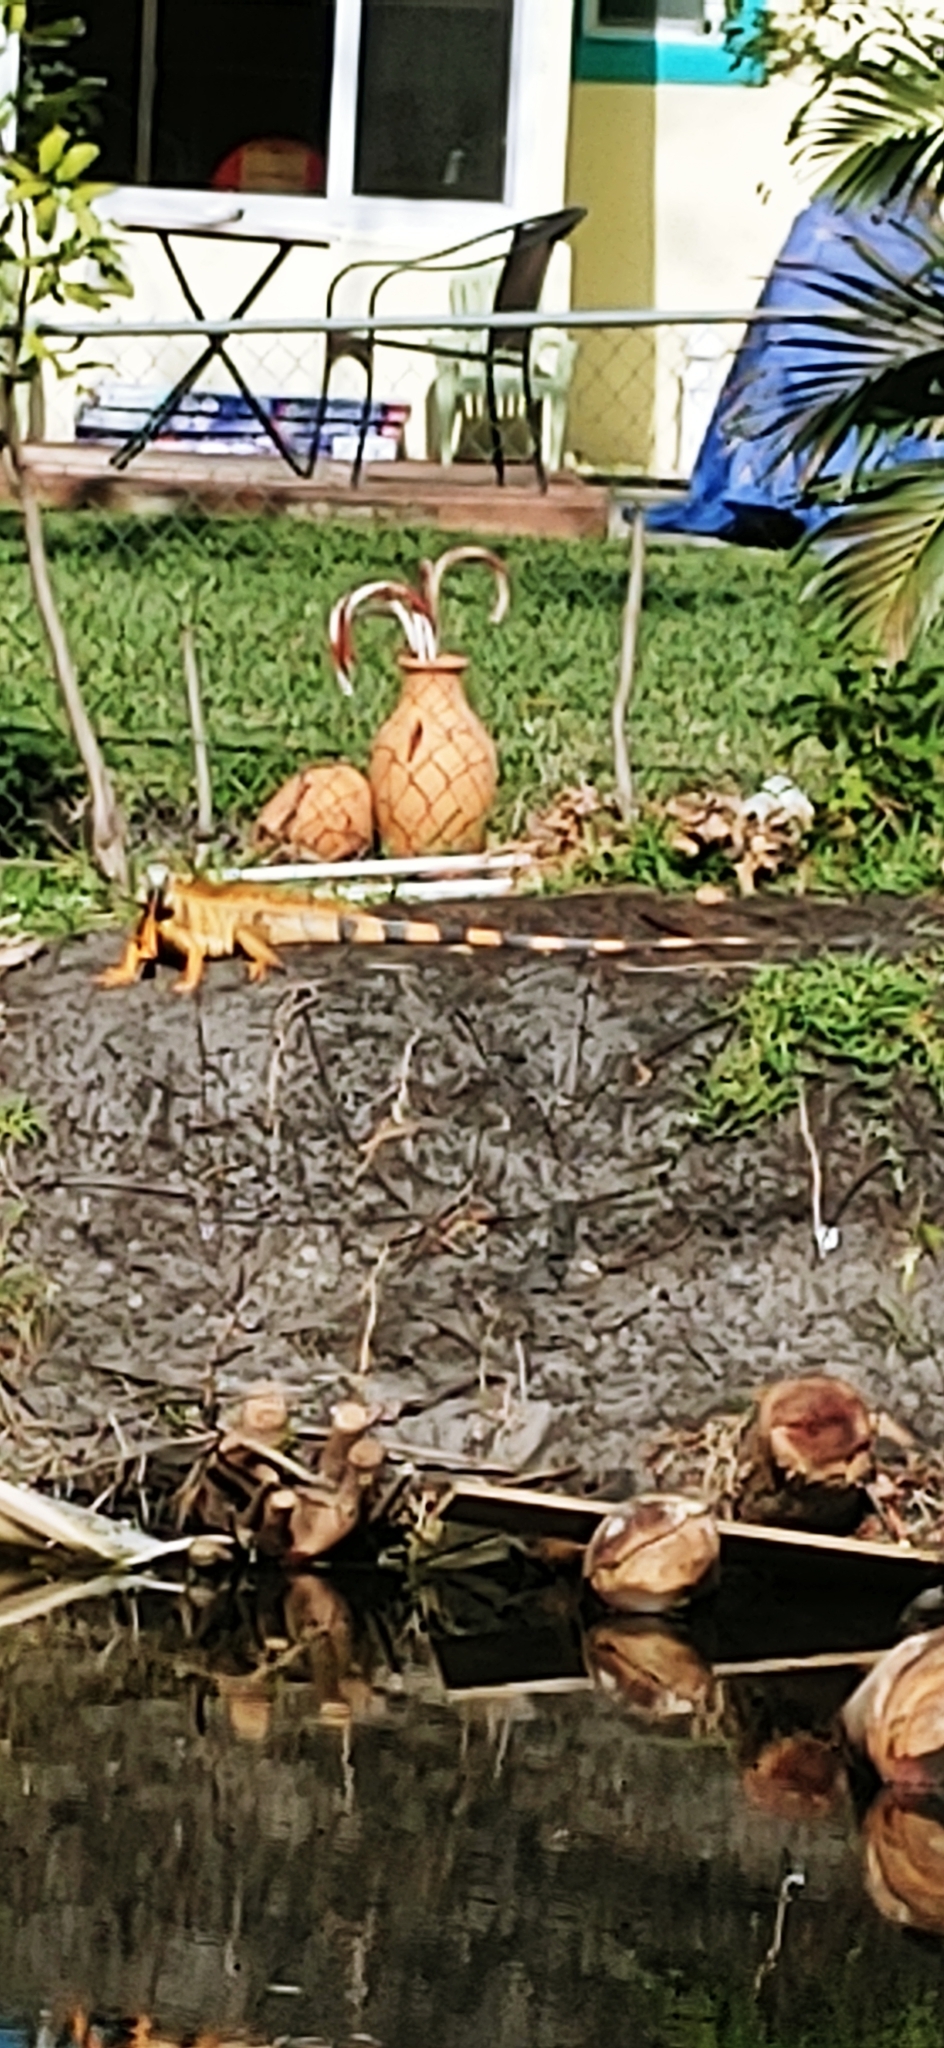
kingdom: Animalia
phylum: Chordata
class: Squamata
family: Iguanidae
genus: Iguana
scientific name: Iguana iguana
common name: Green iguana
